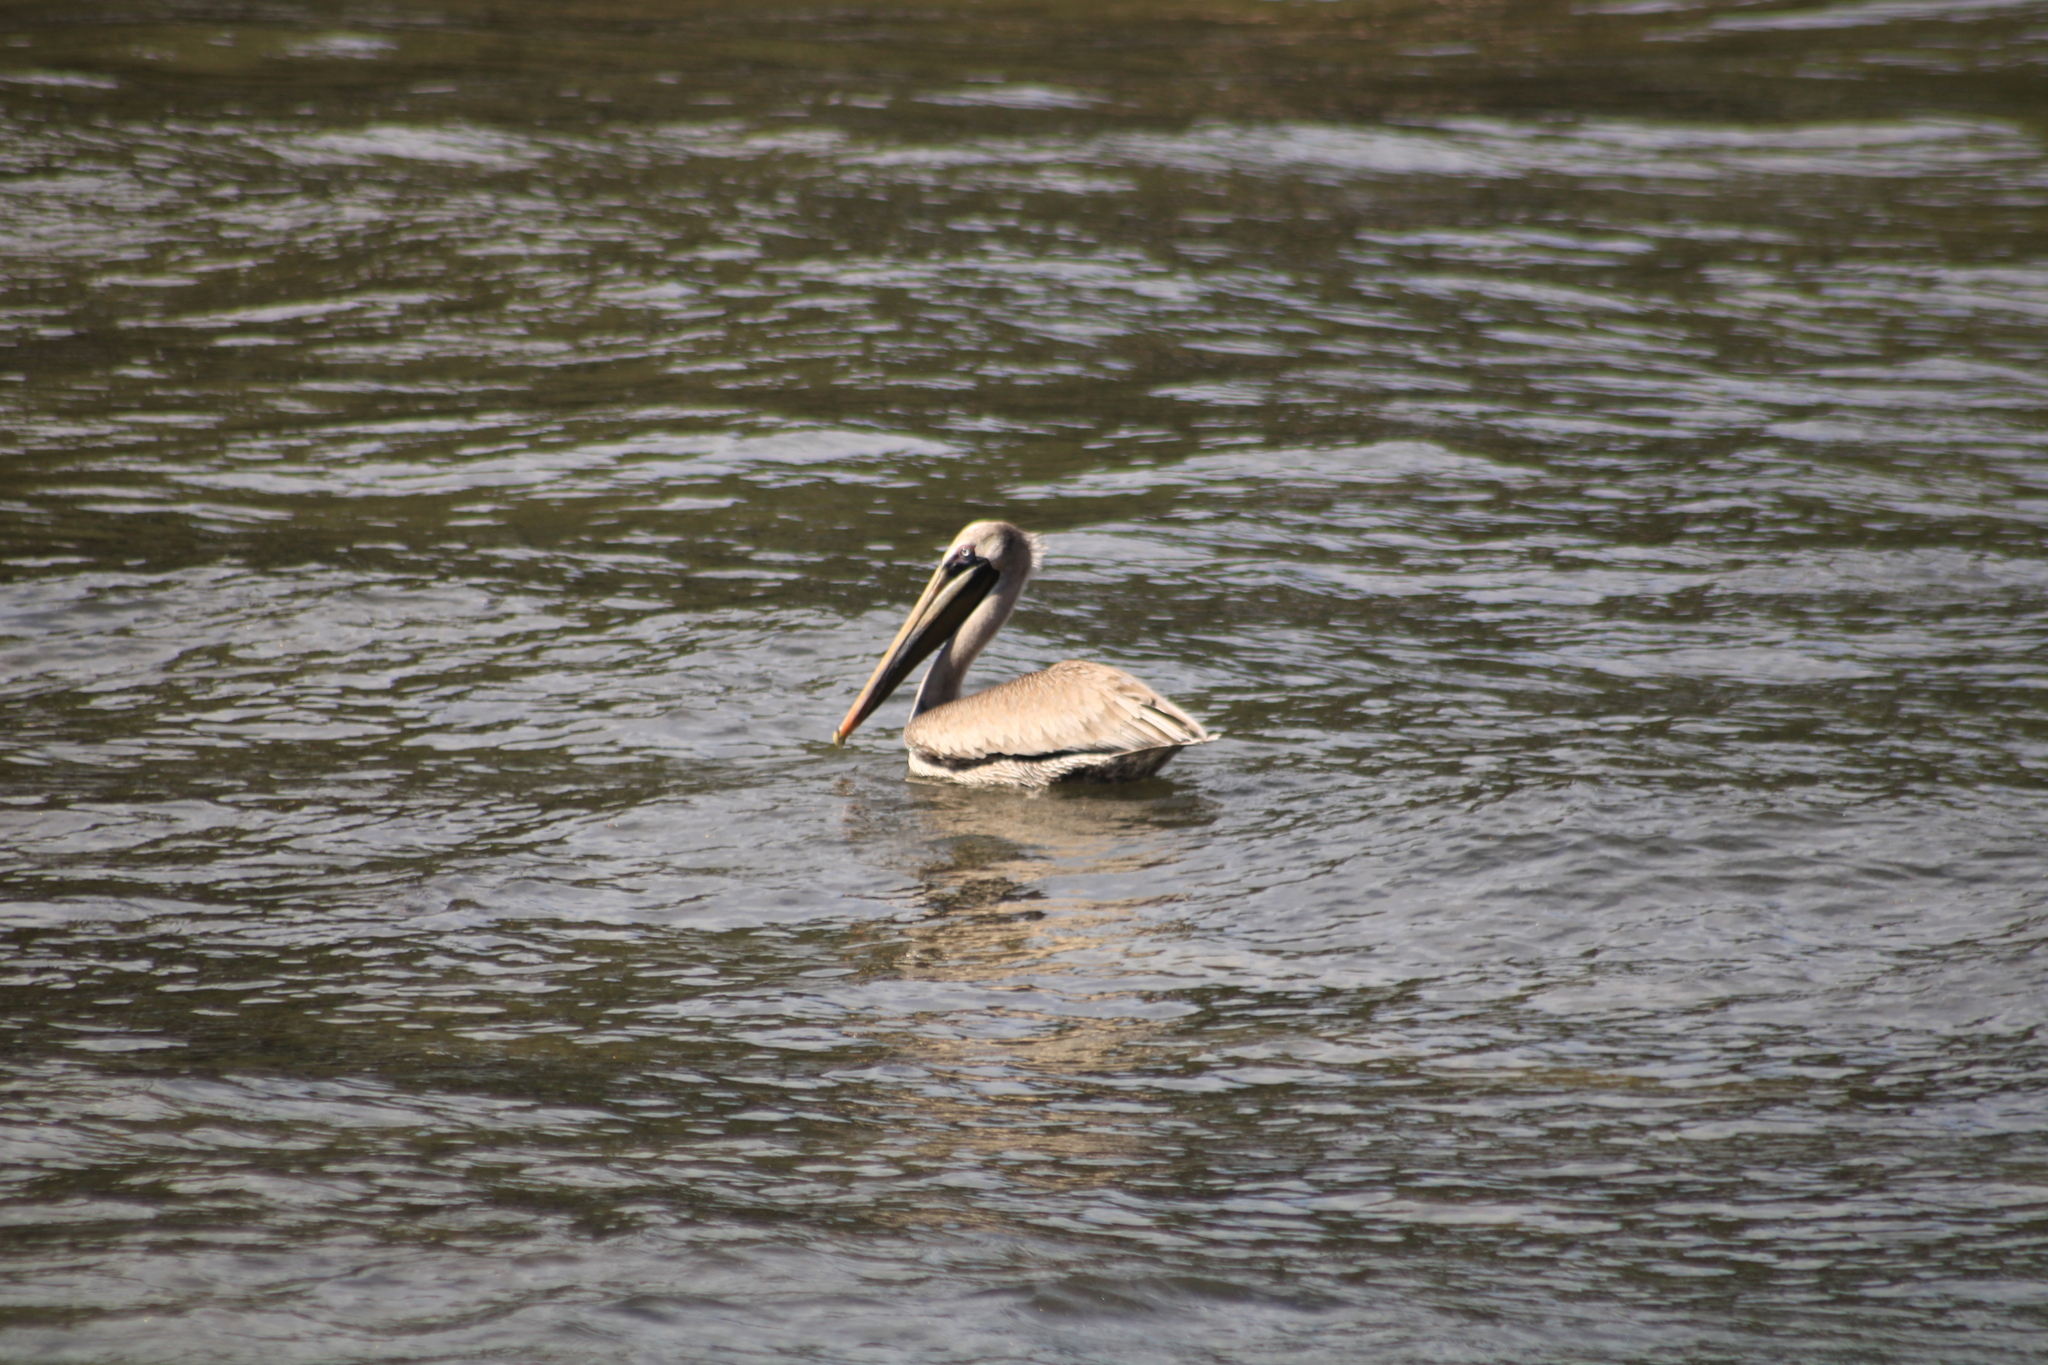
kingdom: Animalia
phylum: Chordata
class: Aves
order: Pelecaniformes
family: Pelecanidae
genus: Pelecanus
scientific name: Pelecanus occidentalis
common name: Brown pelican
